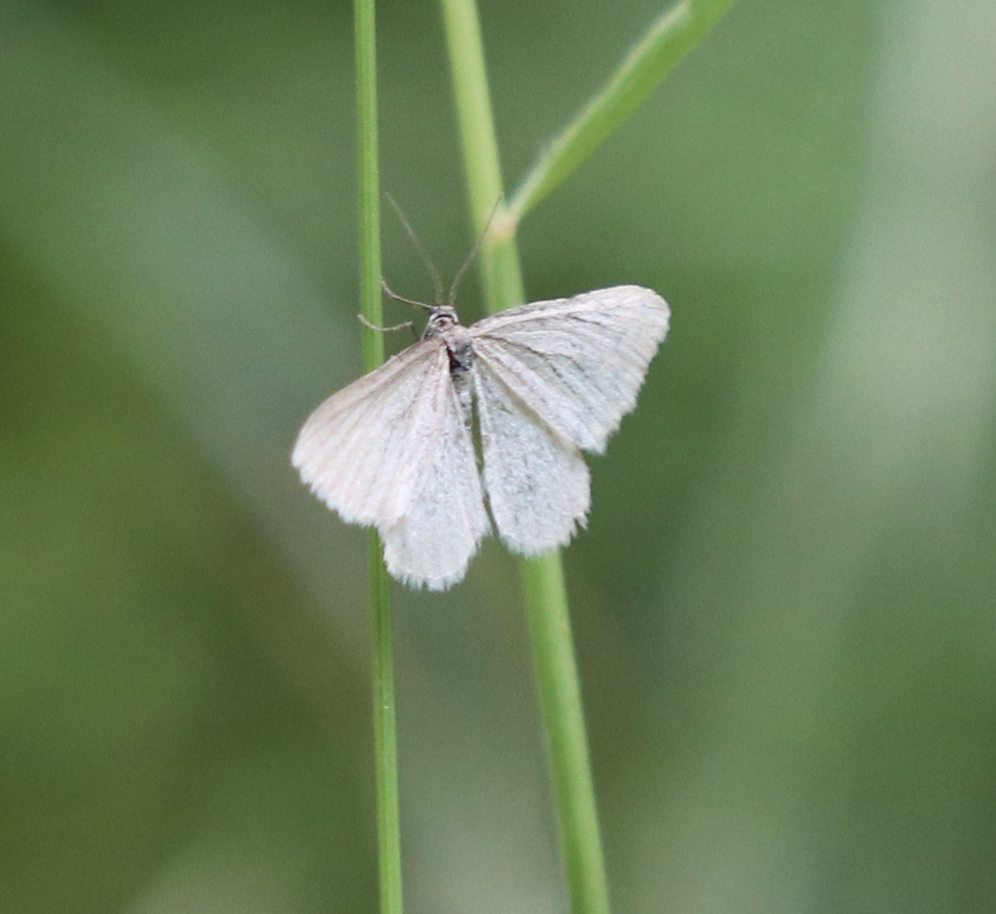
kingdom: Animalia
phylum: Arthropoda
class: Insecta
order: Lepidoptera
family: Geometridae
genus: Minoa
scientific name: Minoa murinata
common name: Drab looper
